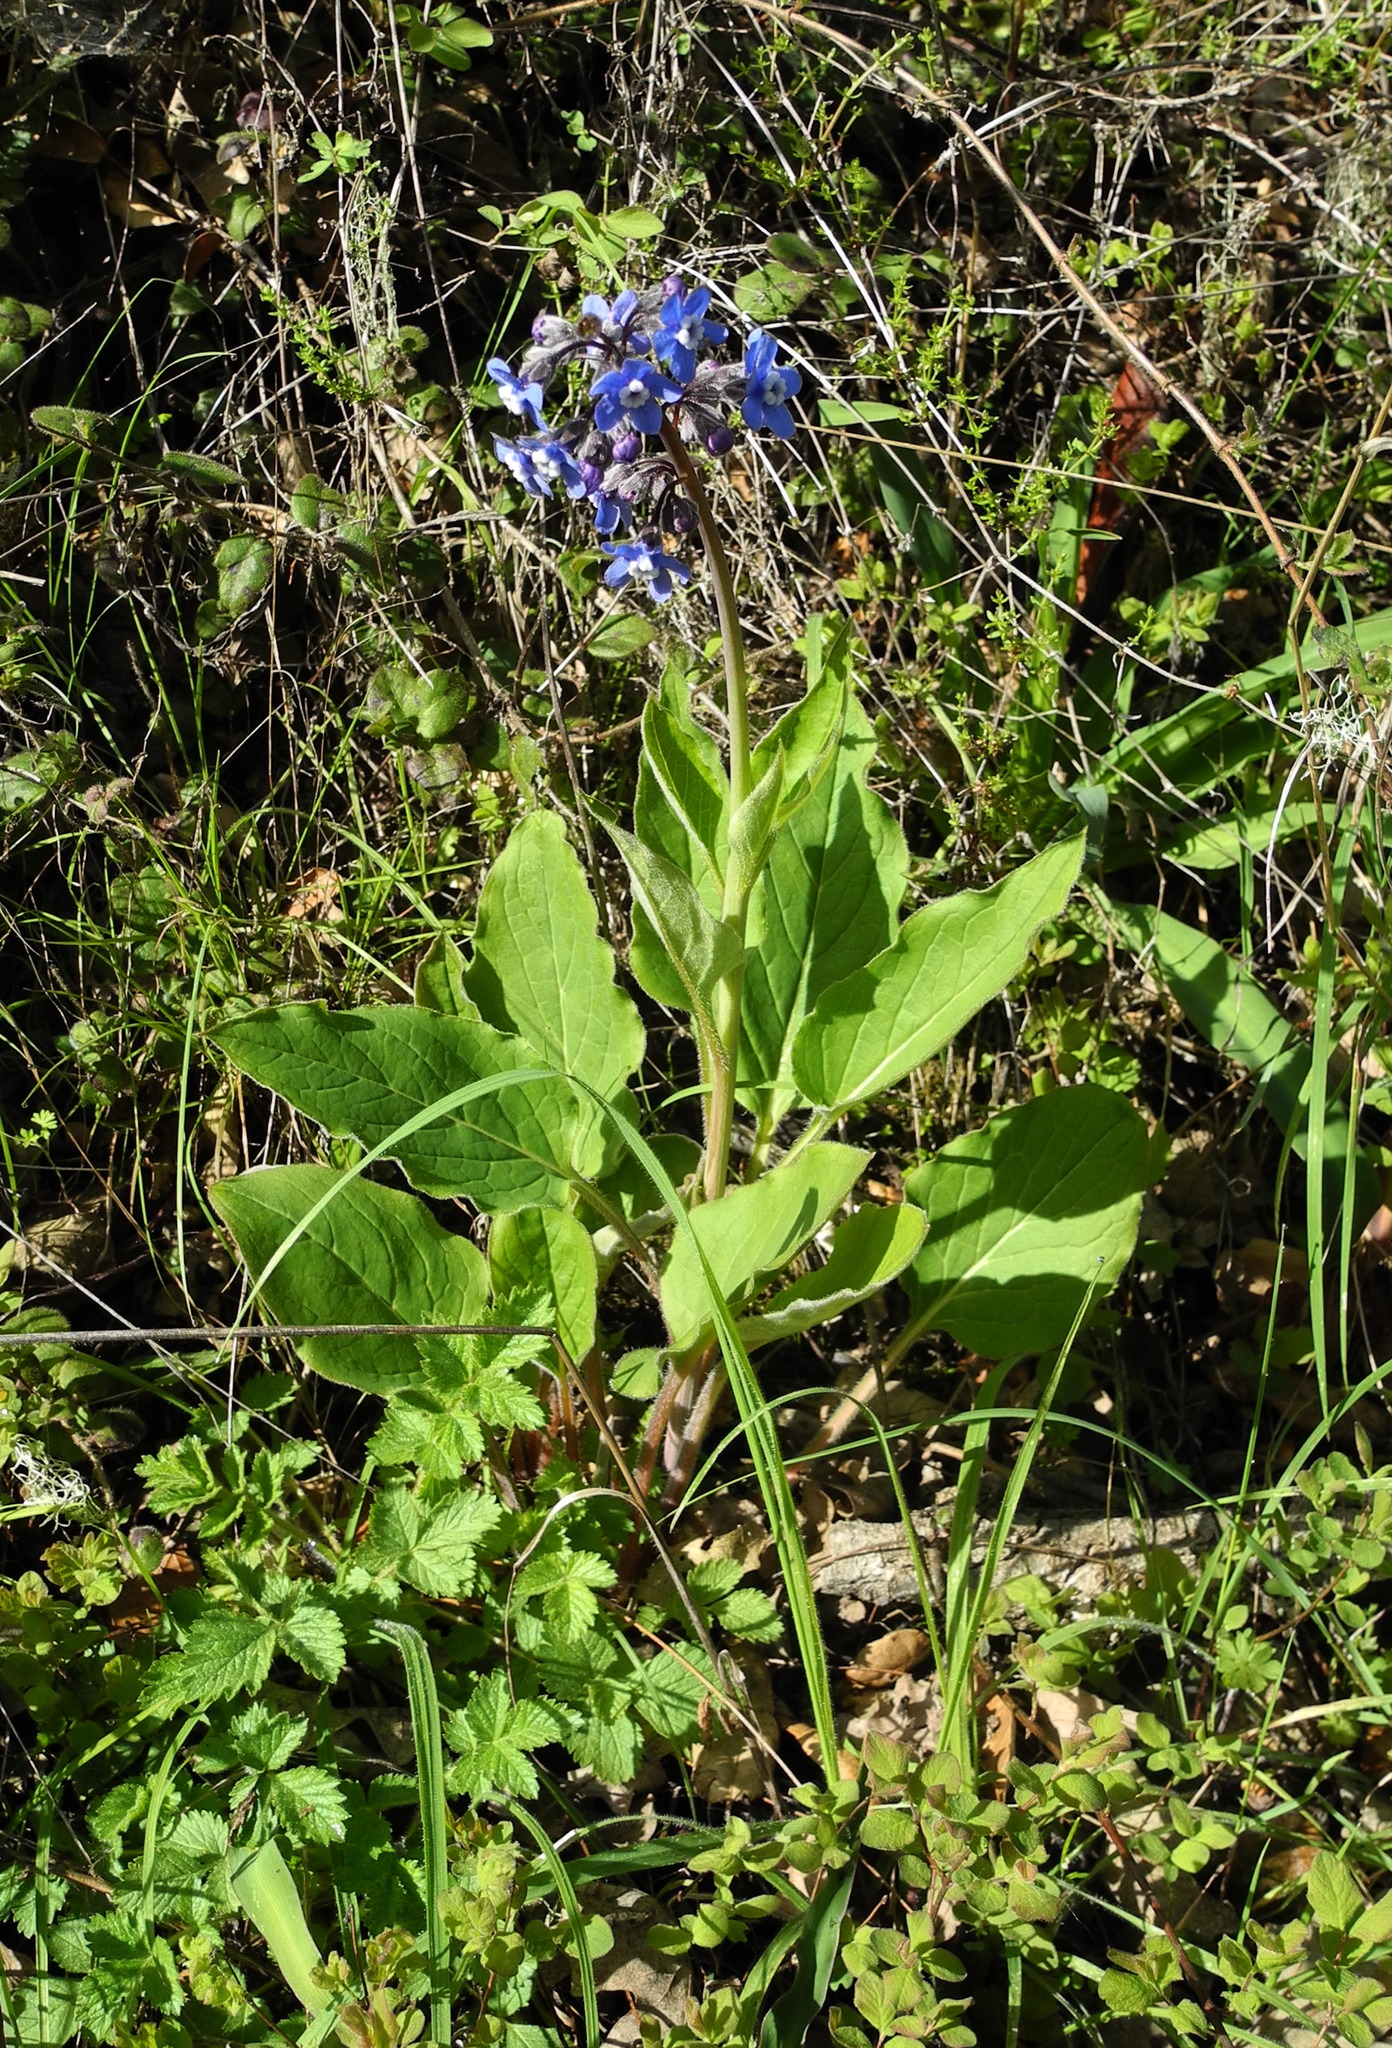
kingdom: Plantae
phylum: Tracheophyta
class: Magnoliopsida
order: Boraginales
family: Boraginaceae
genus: Adelinia
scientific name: Adelinia grande
